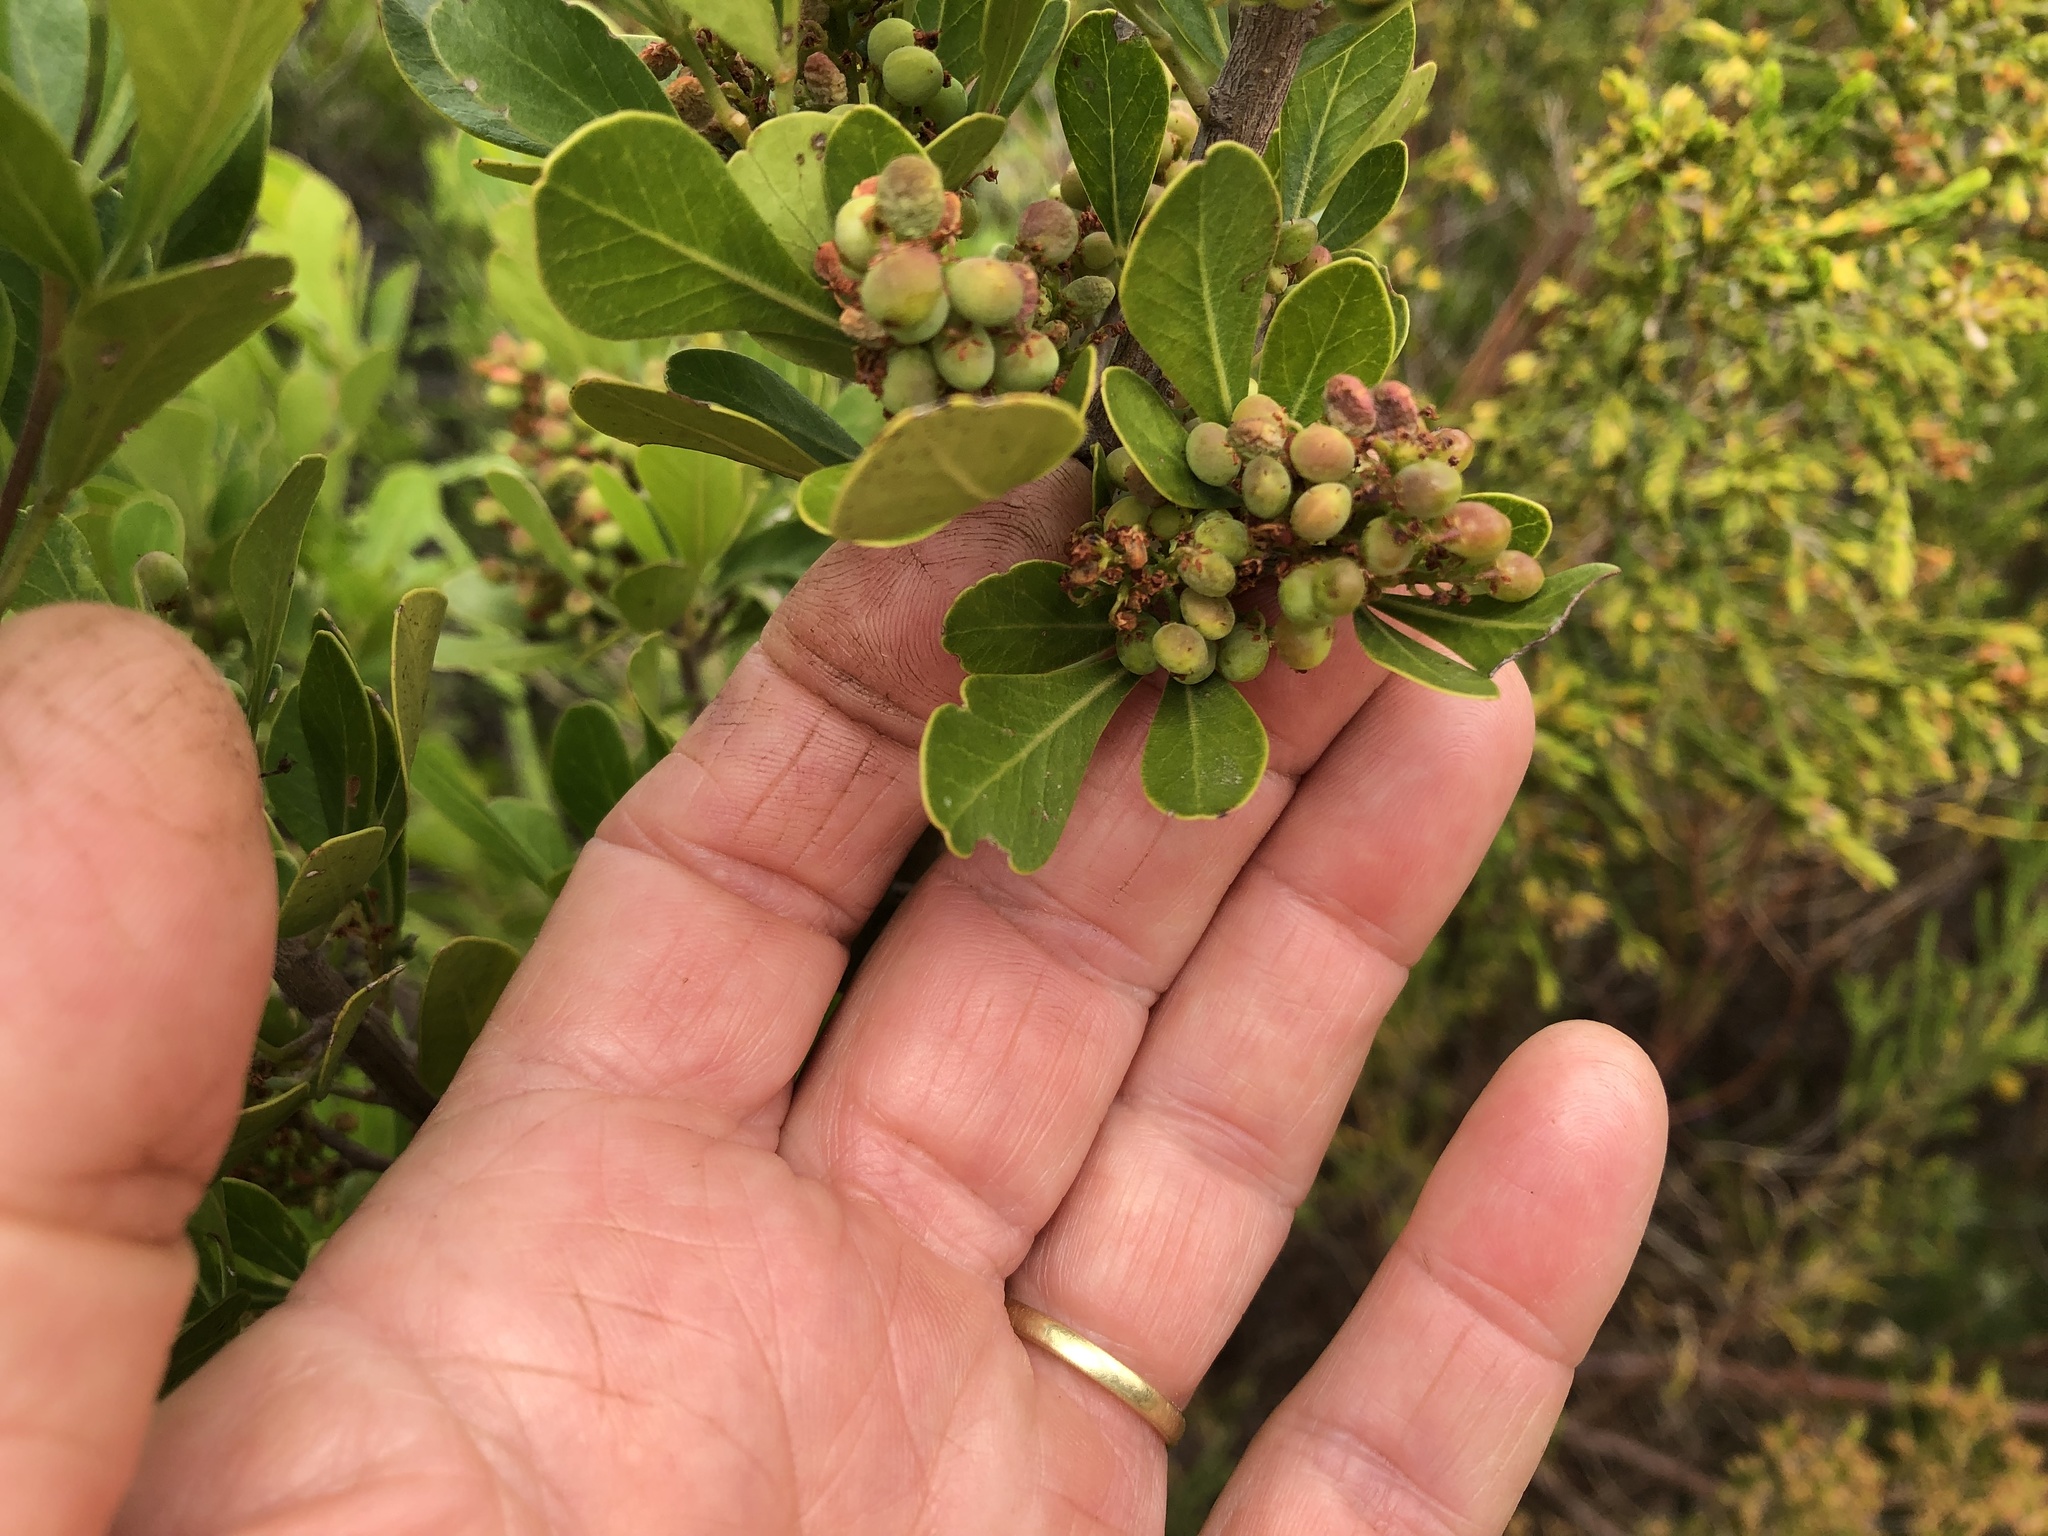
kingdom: Plantae
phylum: Tracheophyta
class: Magnoliopsida
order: Sapindales
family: Anacardiaceae
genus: Searsia
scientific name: Searsia lucida
